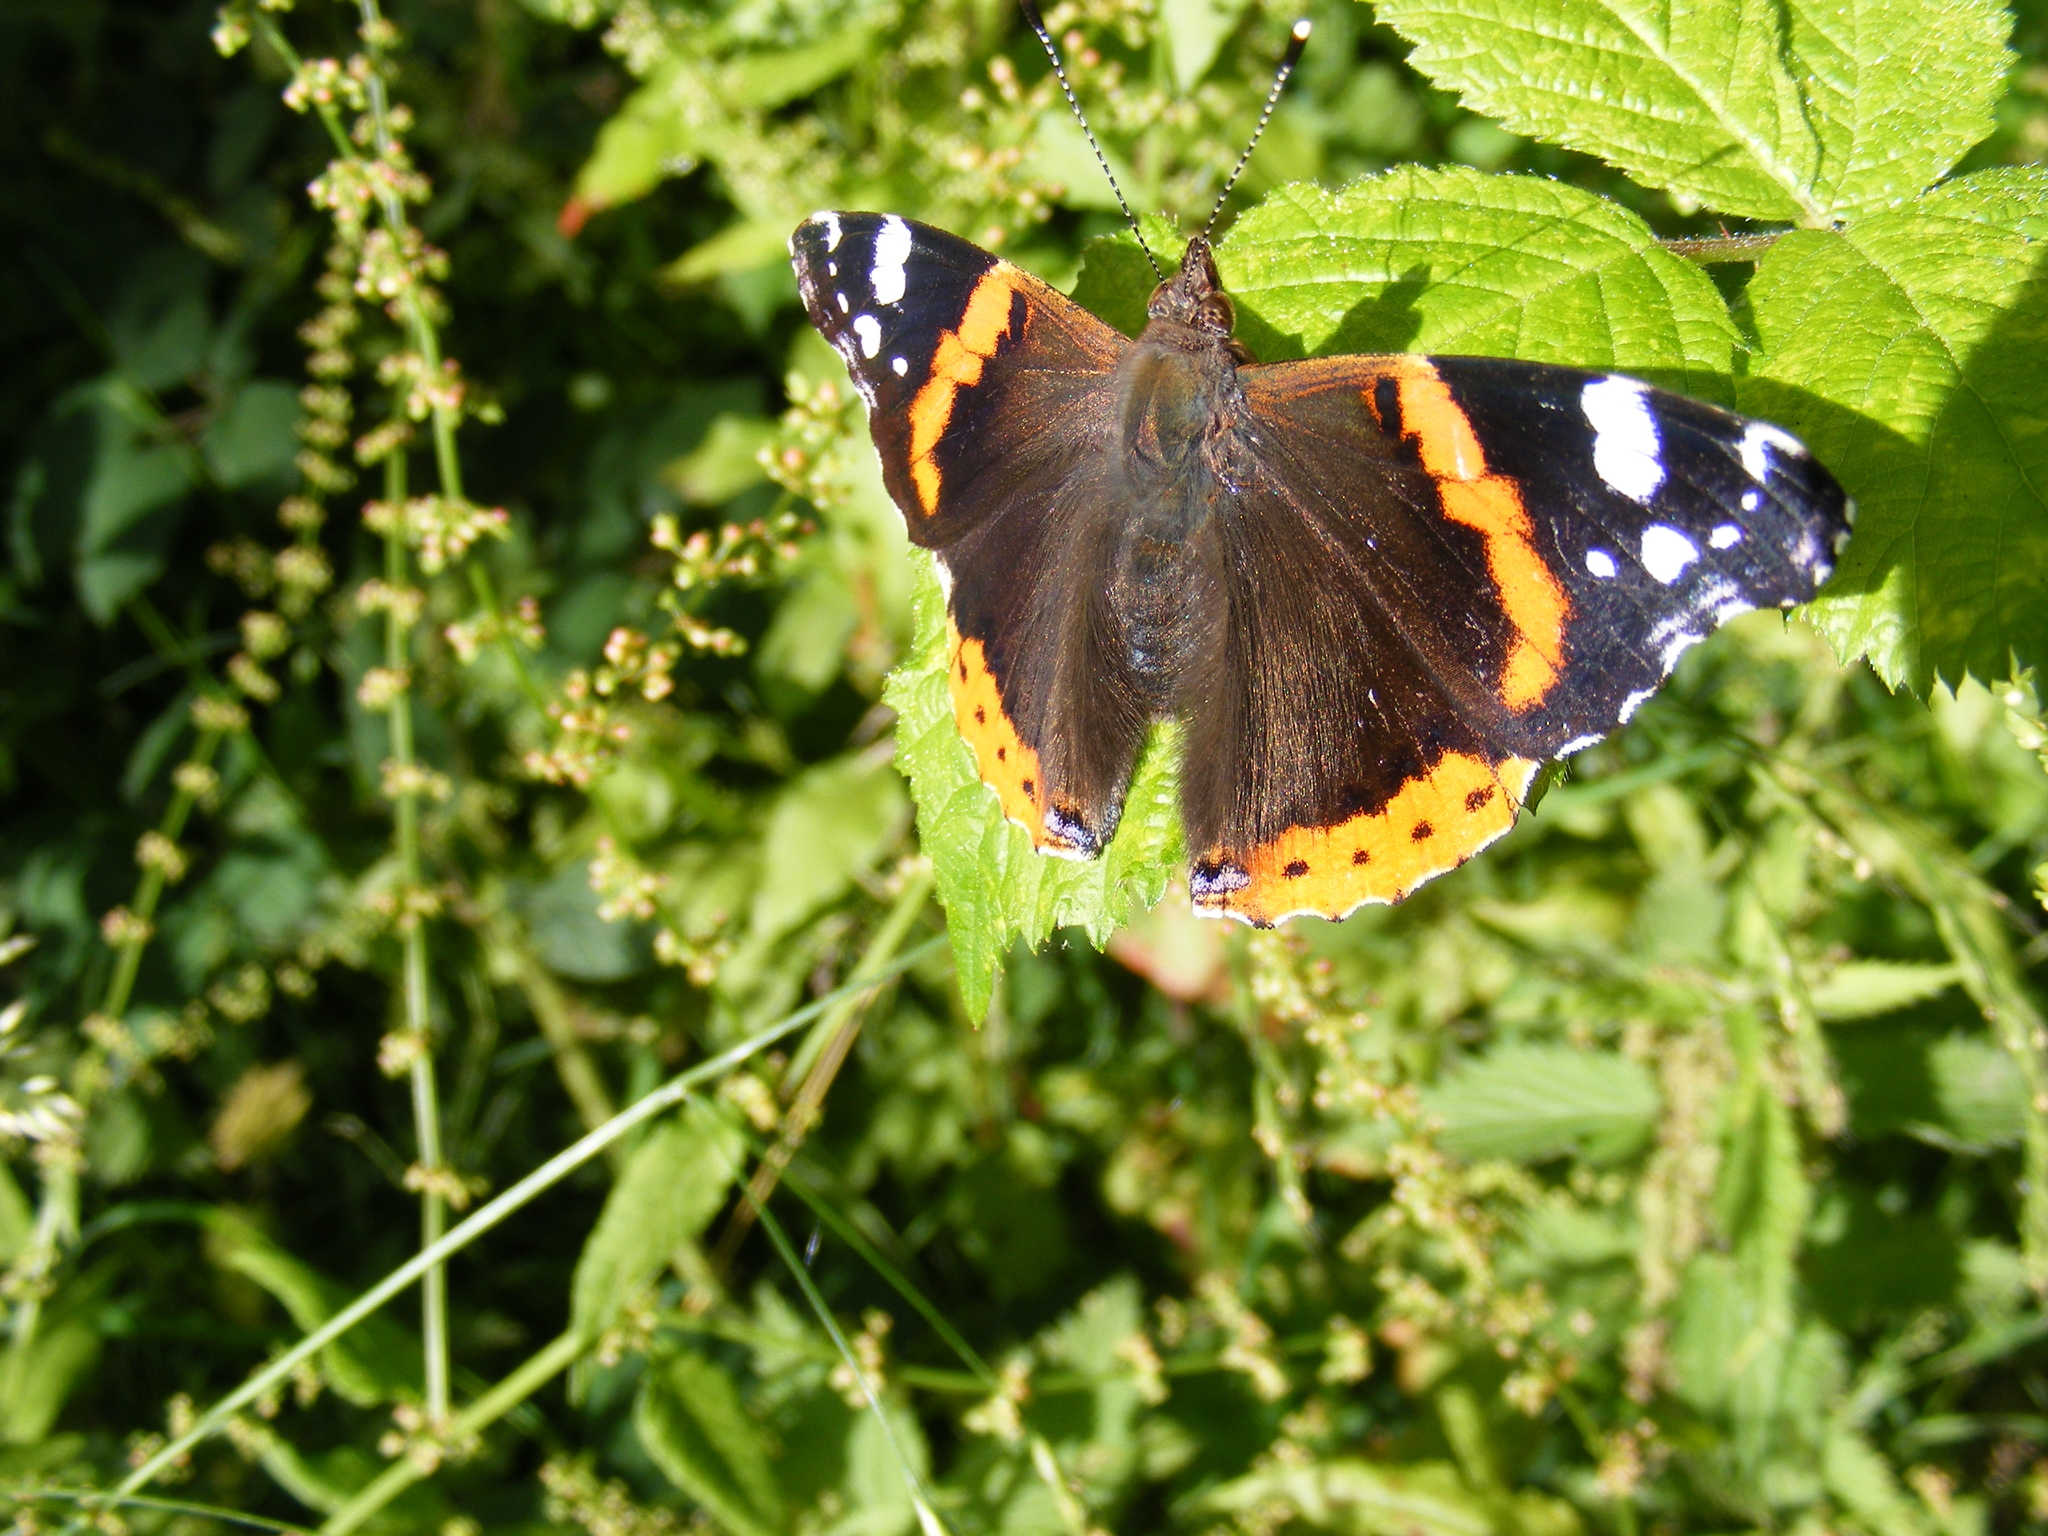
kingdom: Animalia
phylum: Arthropoda
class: Insecta
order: Lepidoptera
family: Nymphalidae
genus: Vanessa
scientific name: Vanessa atalanta
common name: Red admiral
